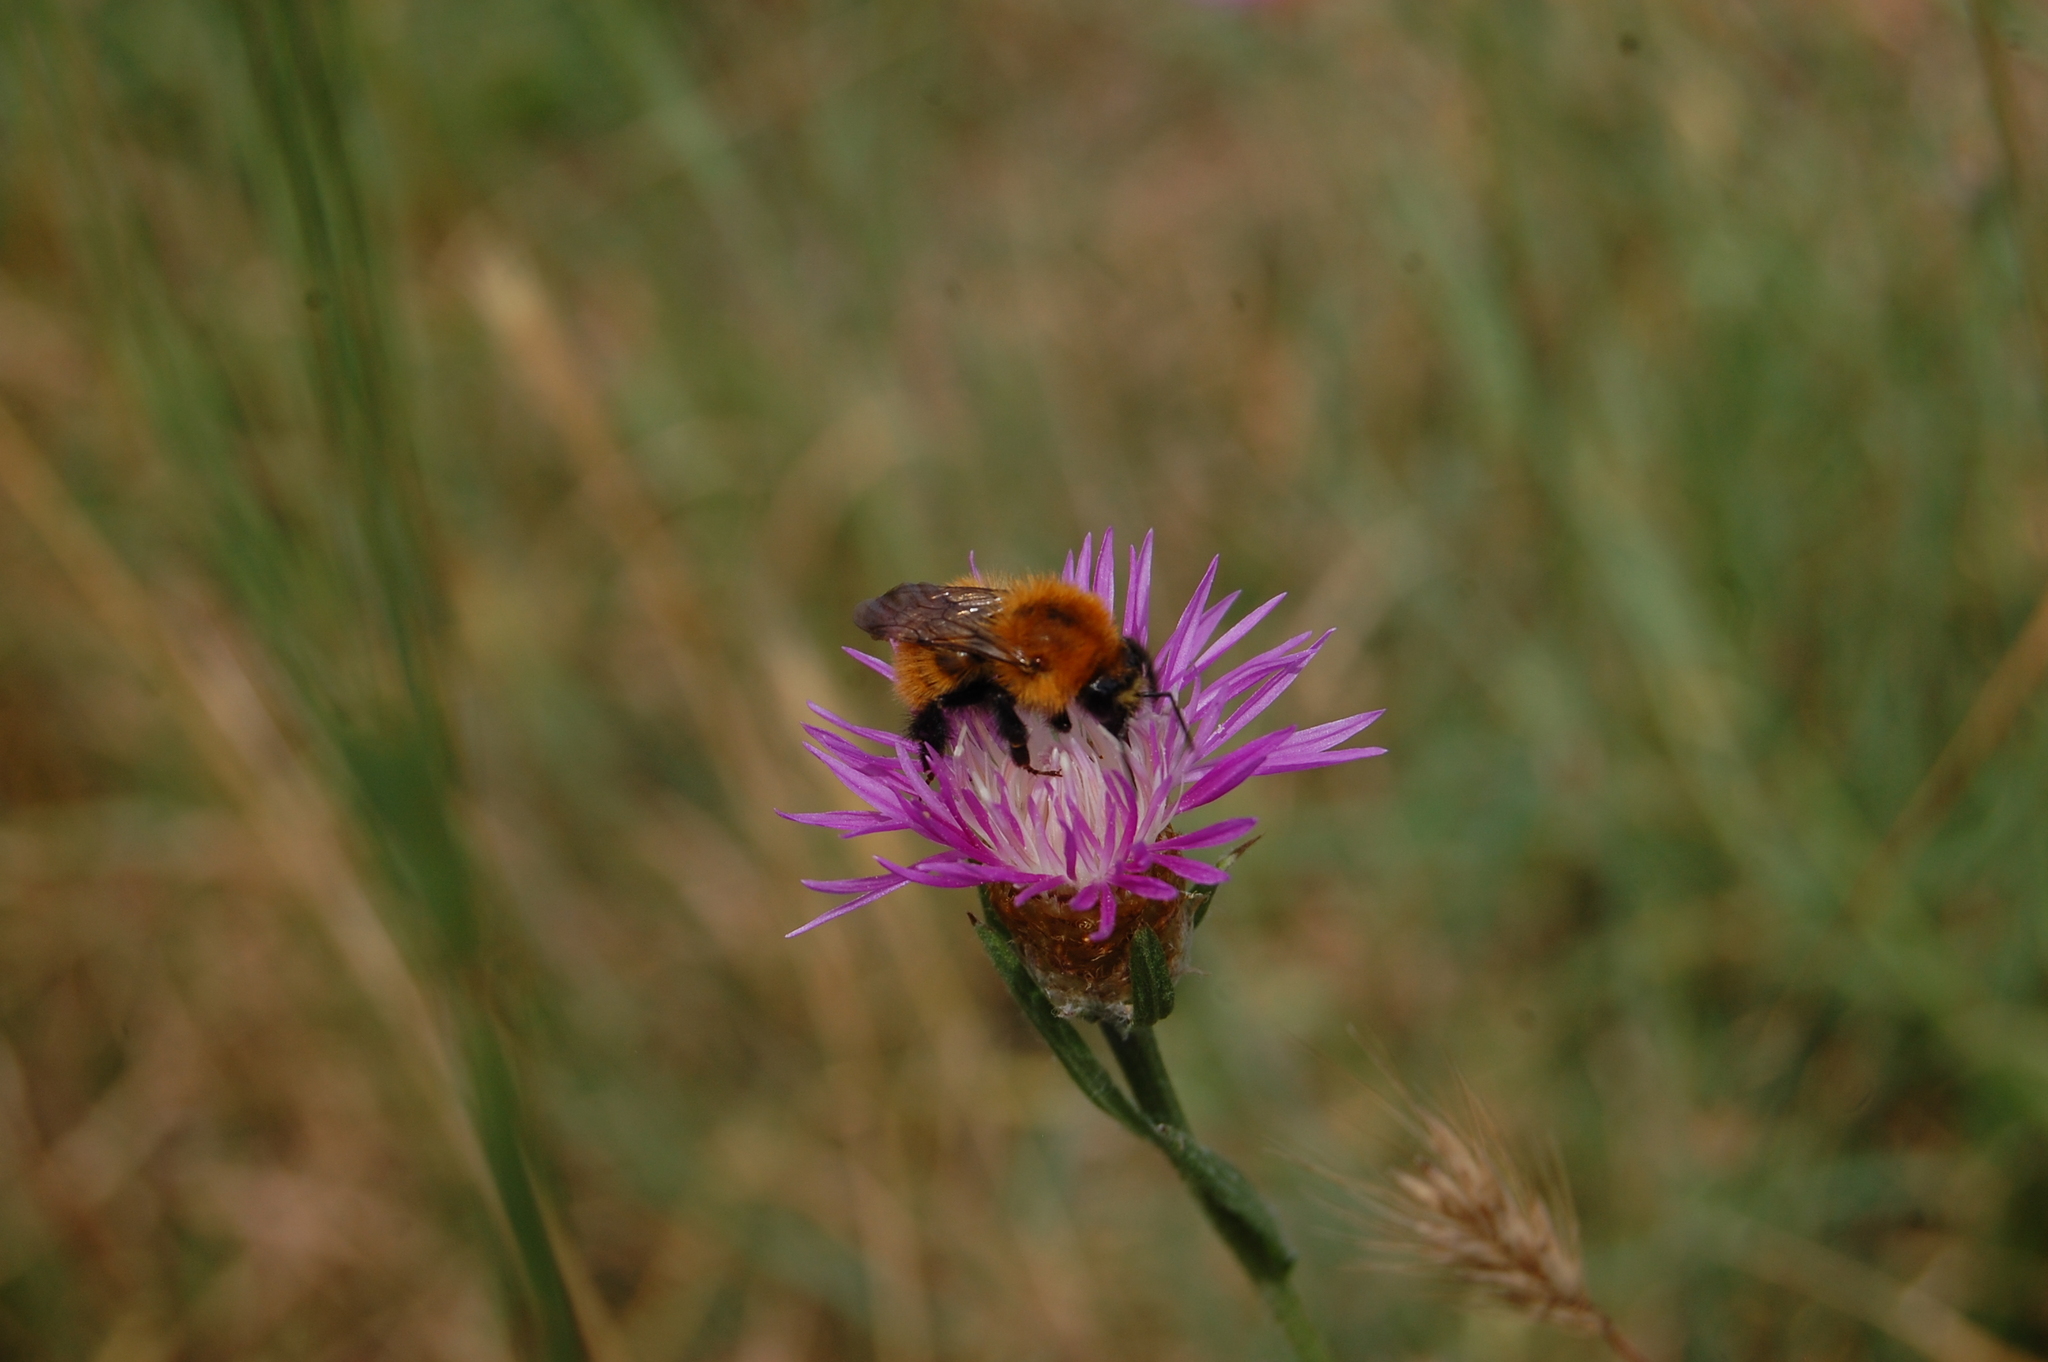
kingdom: Animalia
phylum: Arthropoda
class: Insecta
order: Hymenoptera
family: Apidae
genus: Bombus
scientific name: Bombus pascuorum
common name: Common carder bee
